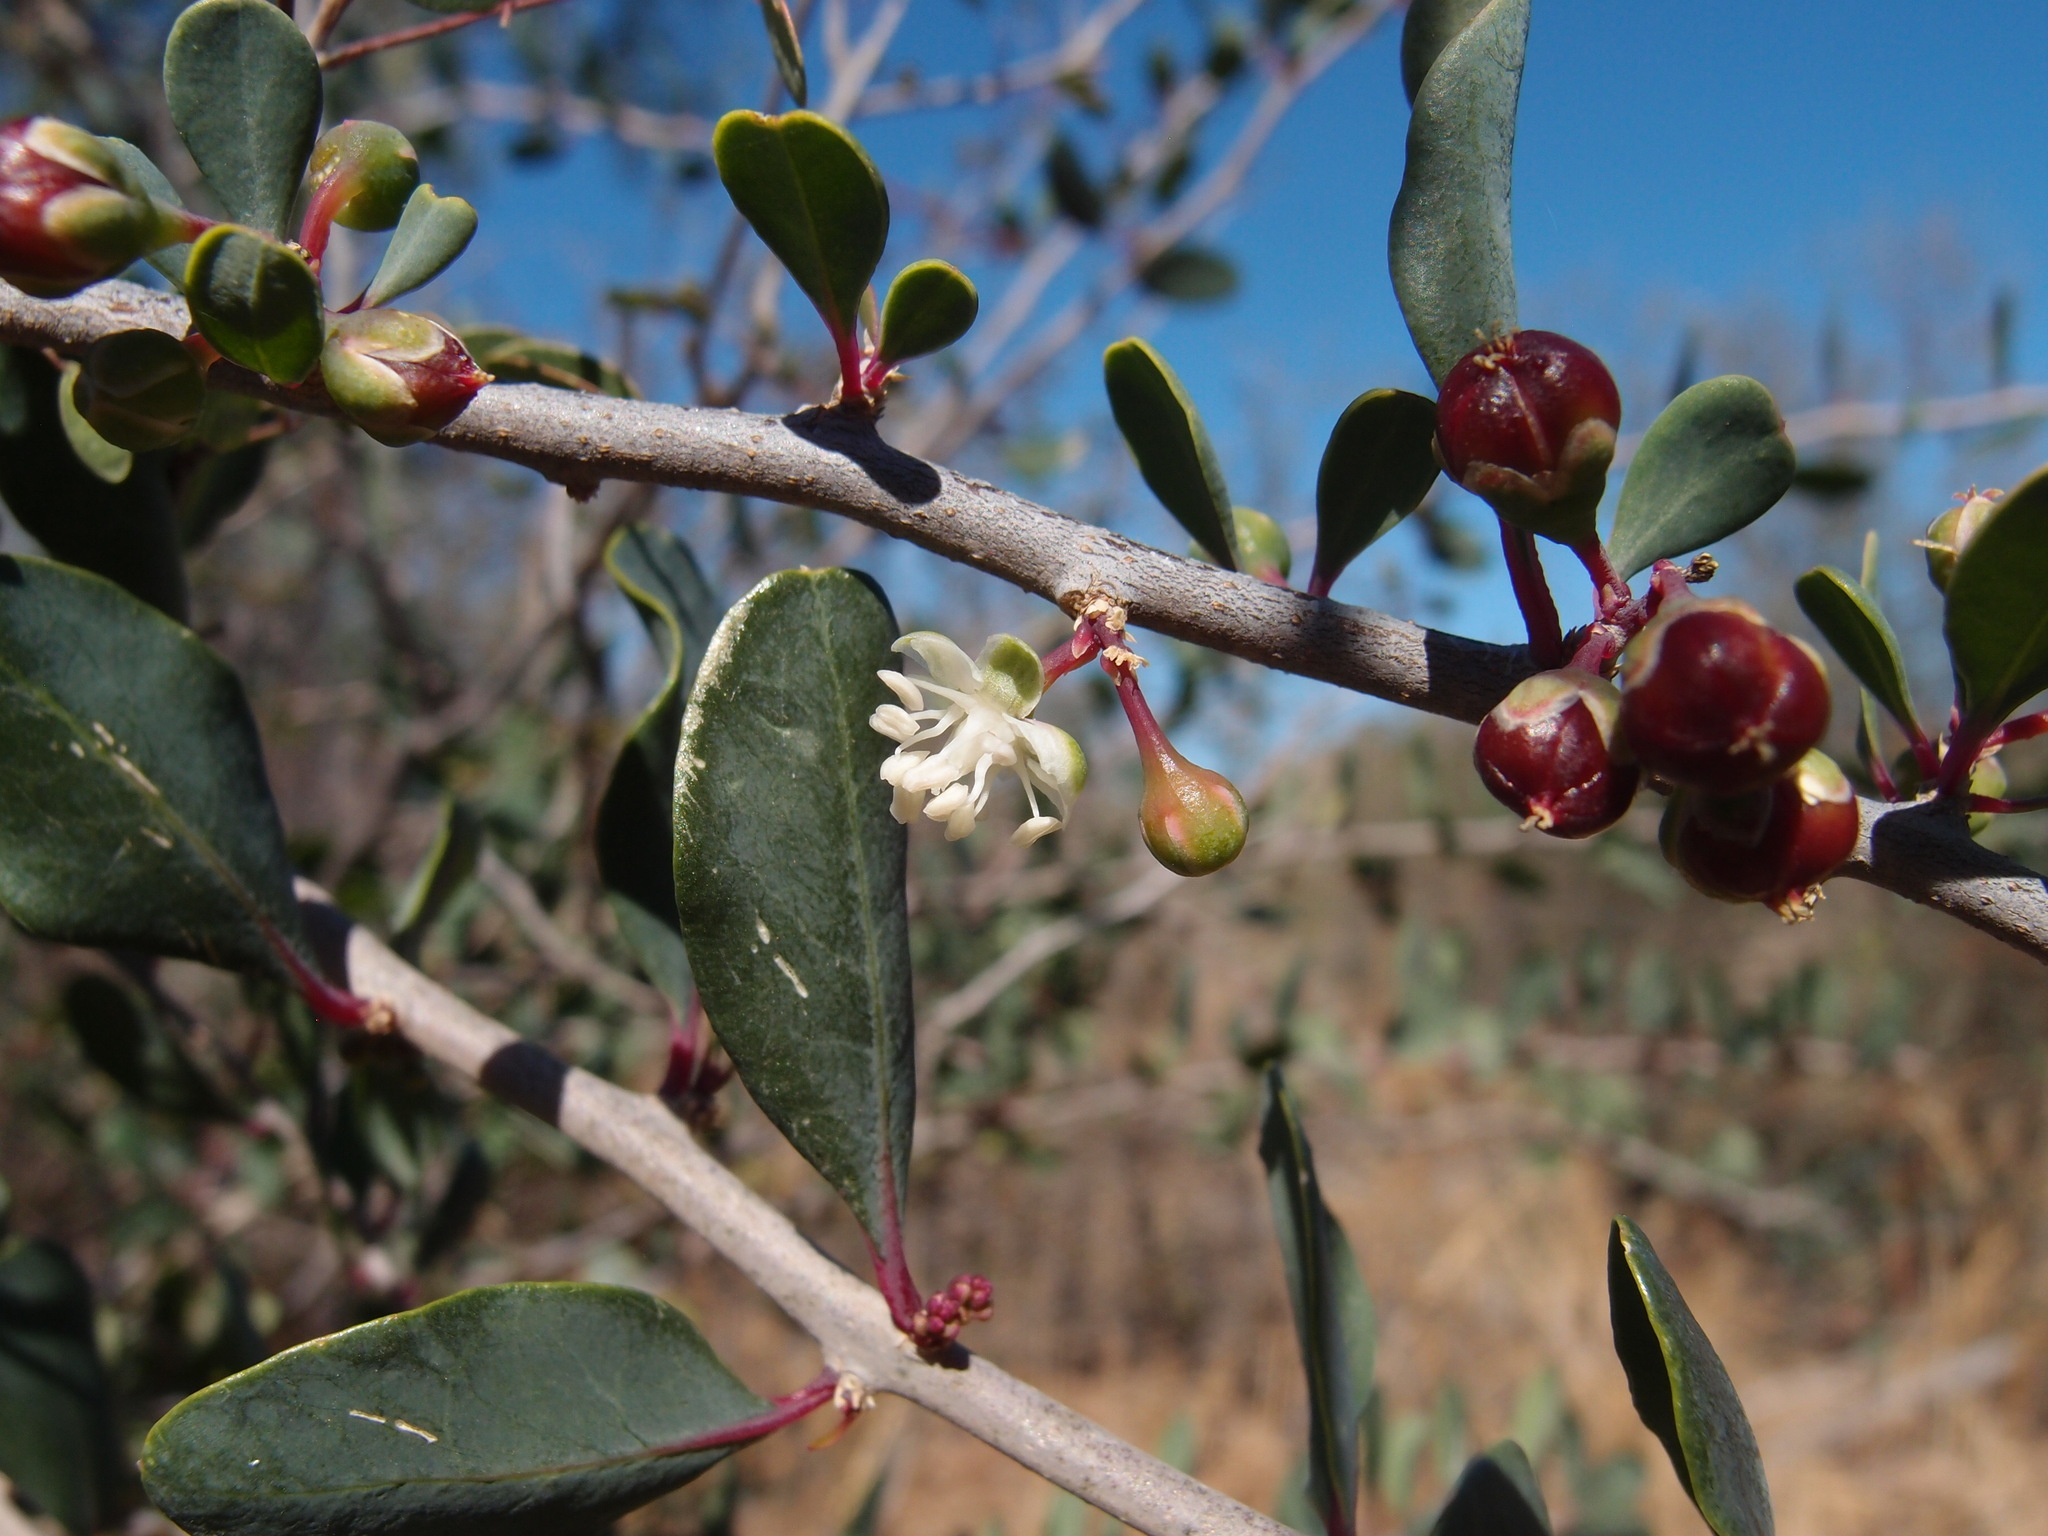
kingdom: Plantae
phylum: Tracheophyta
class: Magnoliopsida
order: Caryophyllales
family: Stegnospermataceae
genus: Stegnosperma
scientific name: Stegnosperma halimifolium
